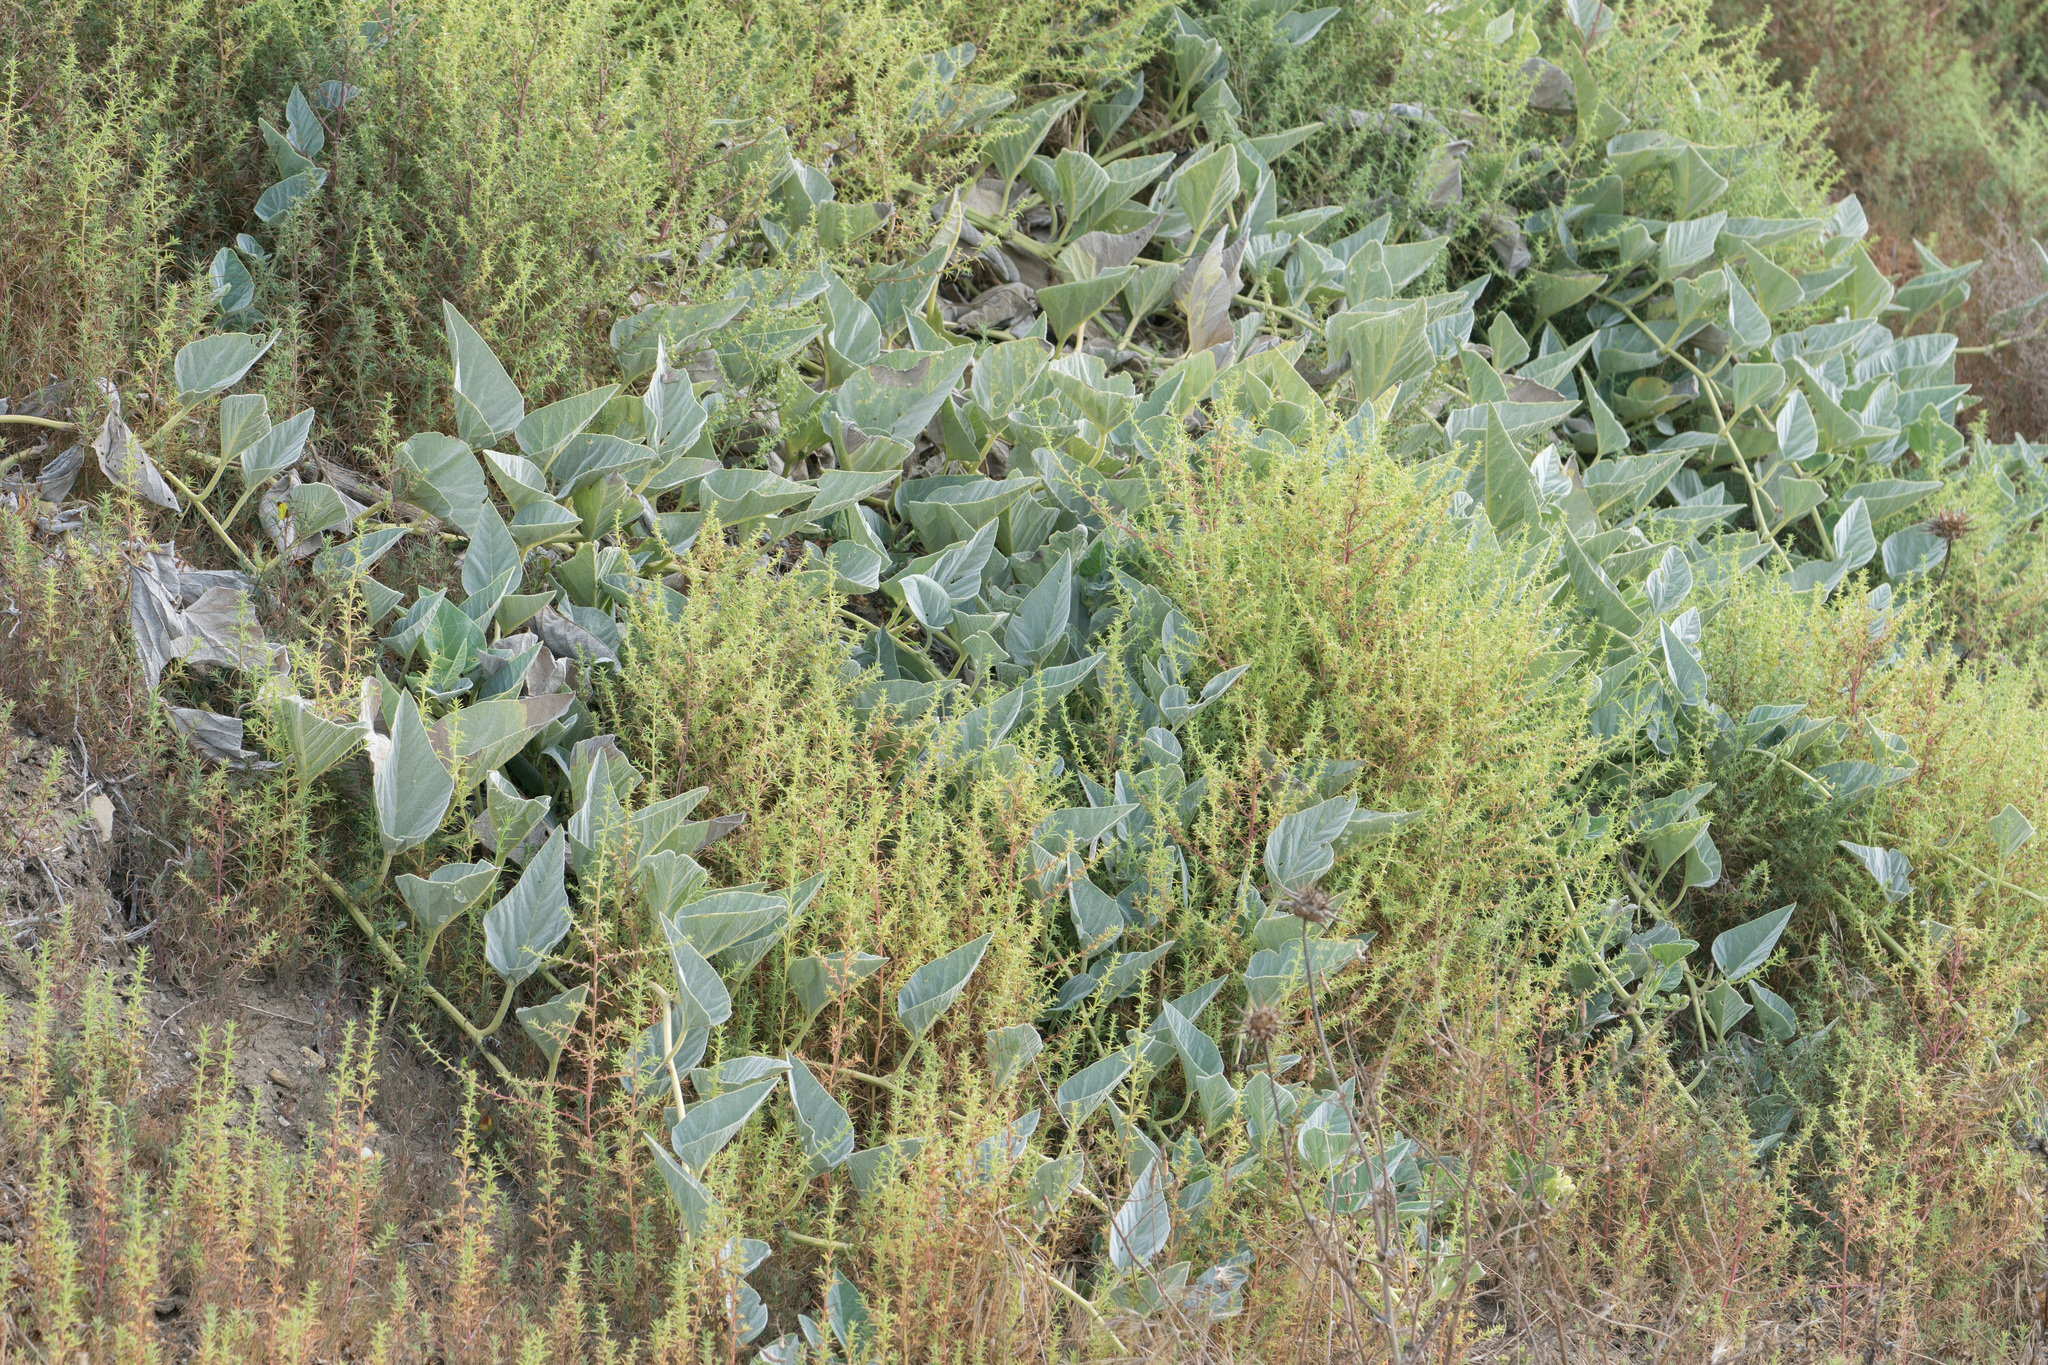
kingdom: Plantae
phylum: Tracheophyta
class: Magnoliopsida
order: Cucurbitales
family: Cucurbitaceae
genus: Cucurbita
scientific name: Cucurbita foetidissima
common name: Buffalo gourd
